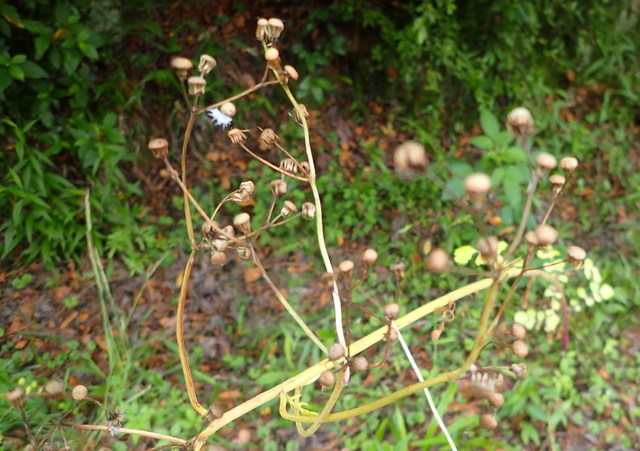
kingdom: Plantae
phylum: Tracheophyta
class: Magnoliopsida
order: Asterales
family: Asteraceae
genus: Packera
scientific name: Packera glabella
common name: Butterweed
